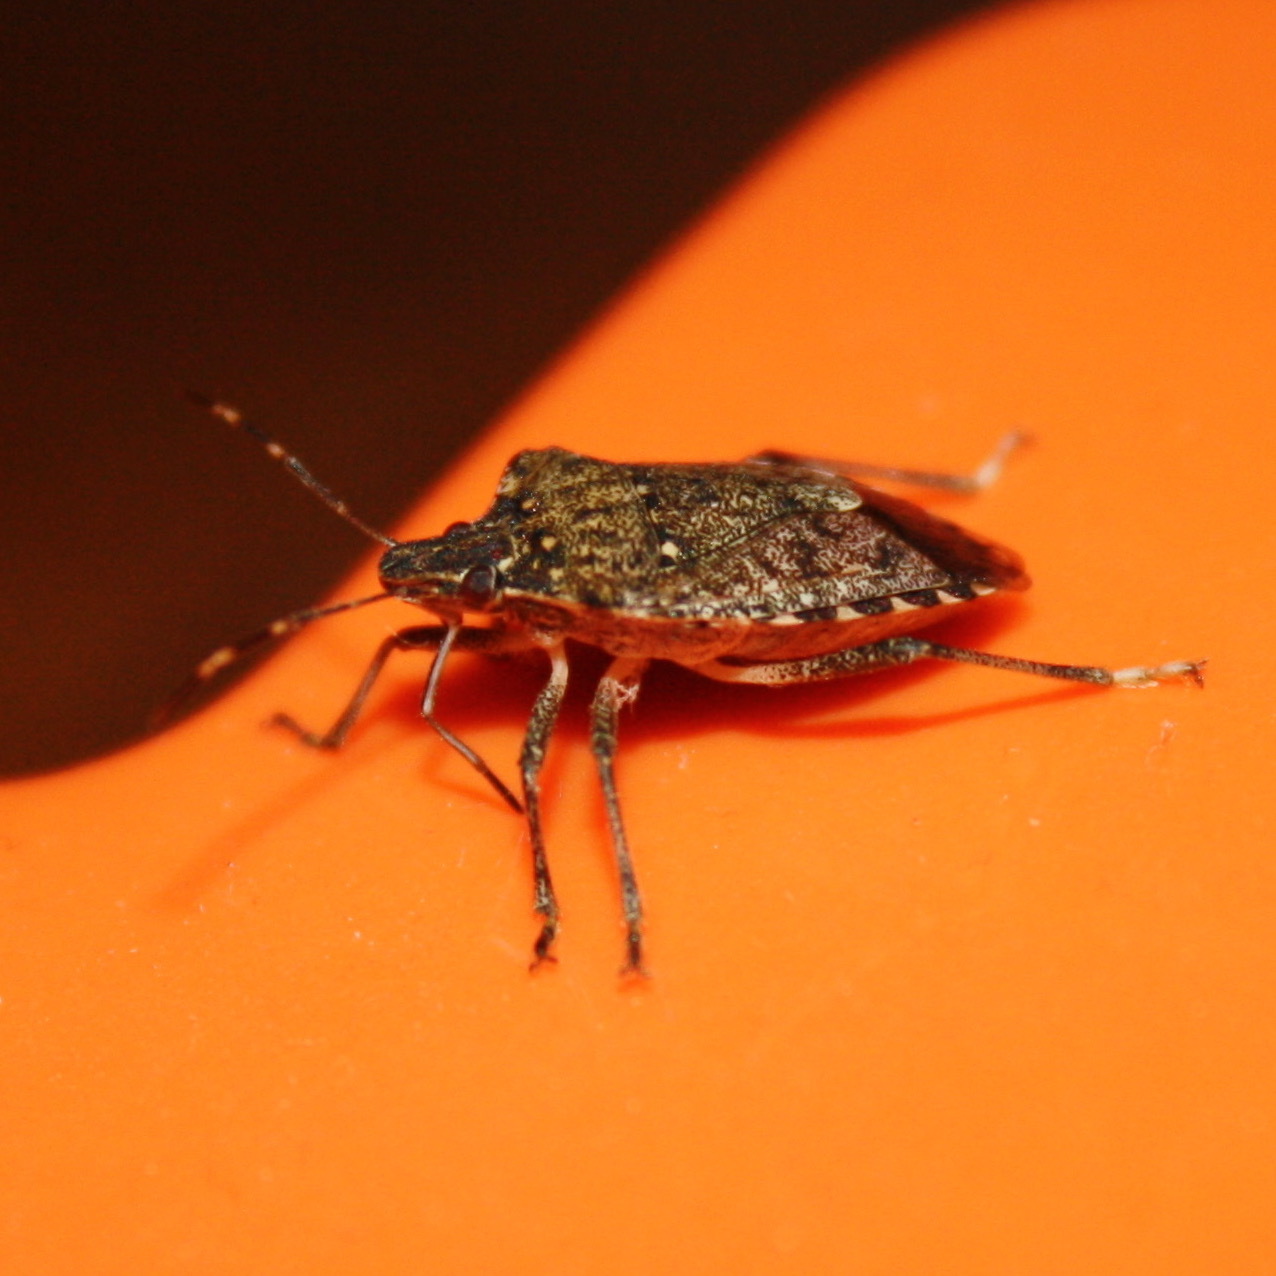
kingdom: Animalia
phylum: Arthropoda
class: Insecta
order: Hemiptera
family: Pentatomidae
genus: Halyomorpha
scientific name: Halyomorpha halys
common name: Brown marmorated stink bug
